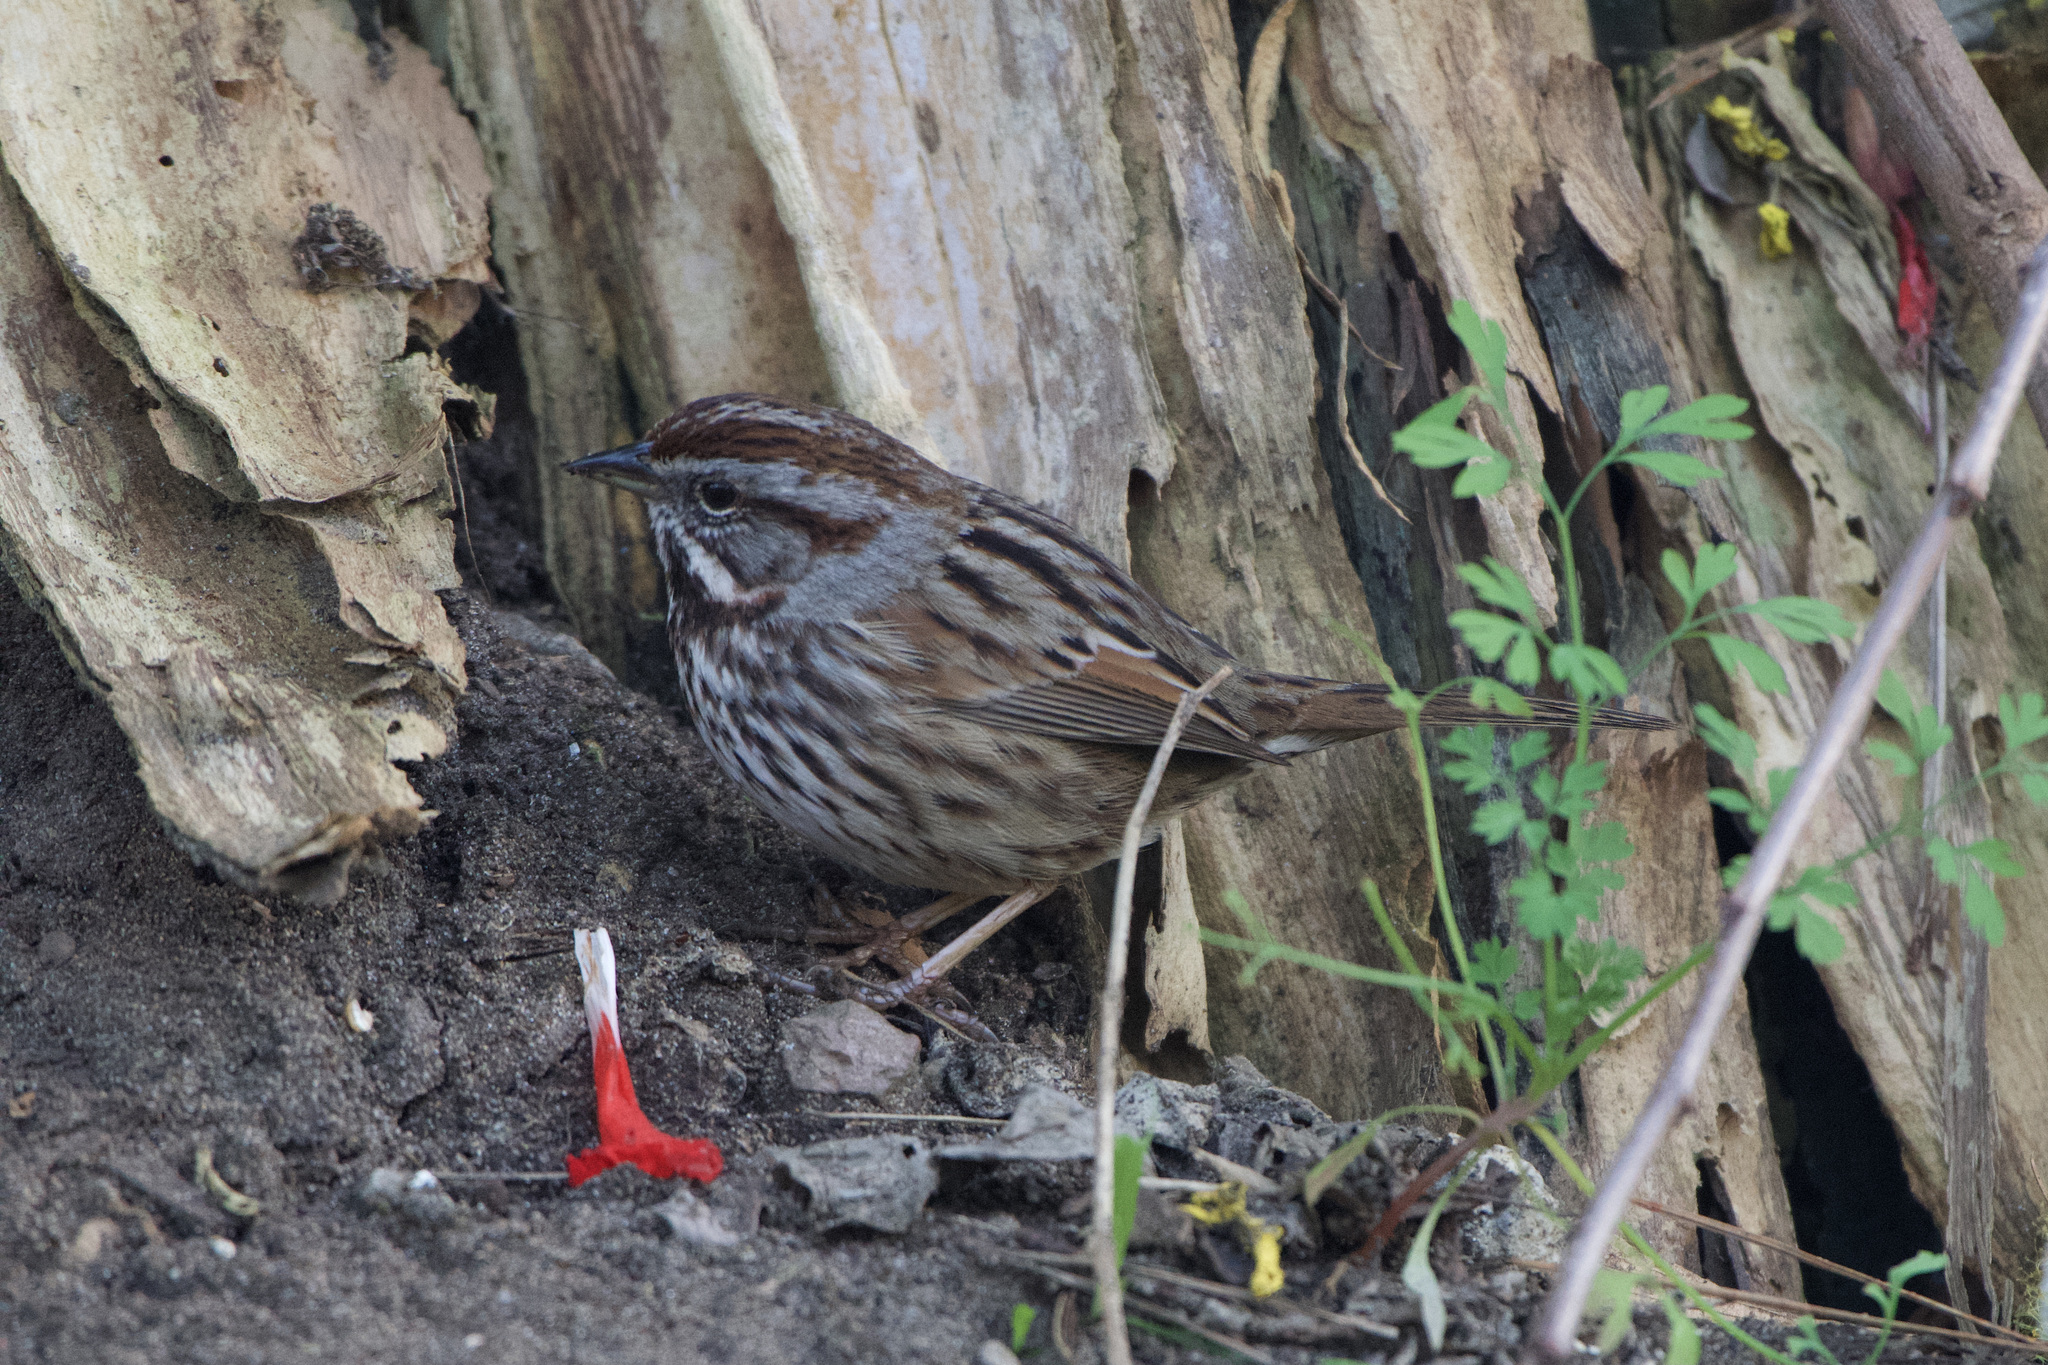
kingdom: Animalia
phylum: Chordata
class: Aves
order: Passeriformes
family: Passerellidae
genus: Melospiza
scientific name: Melospiza melodia
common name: Song sparrow
